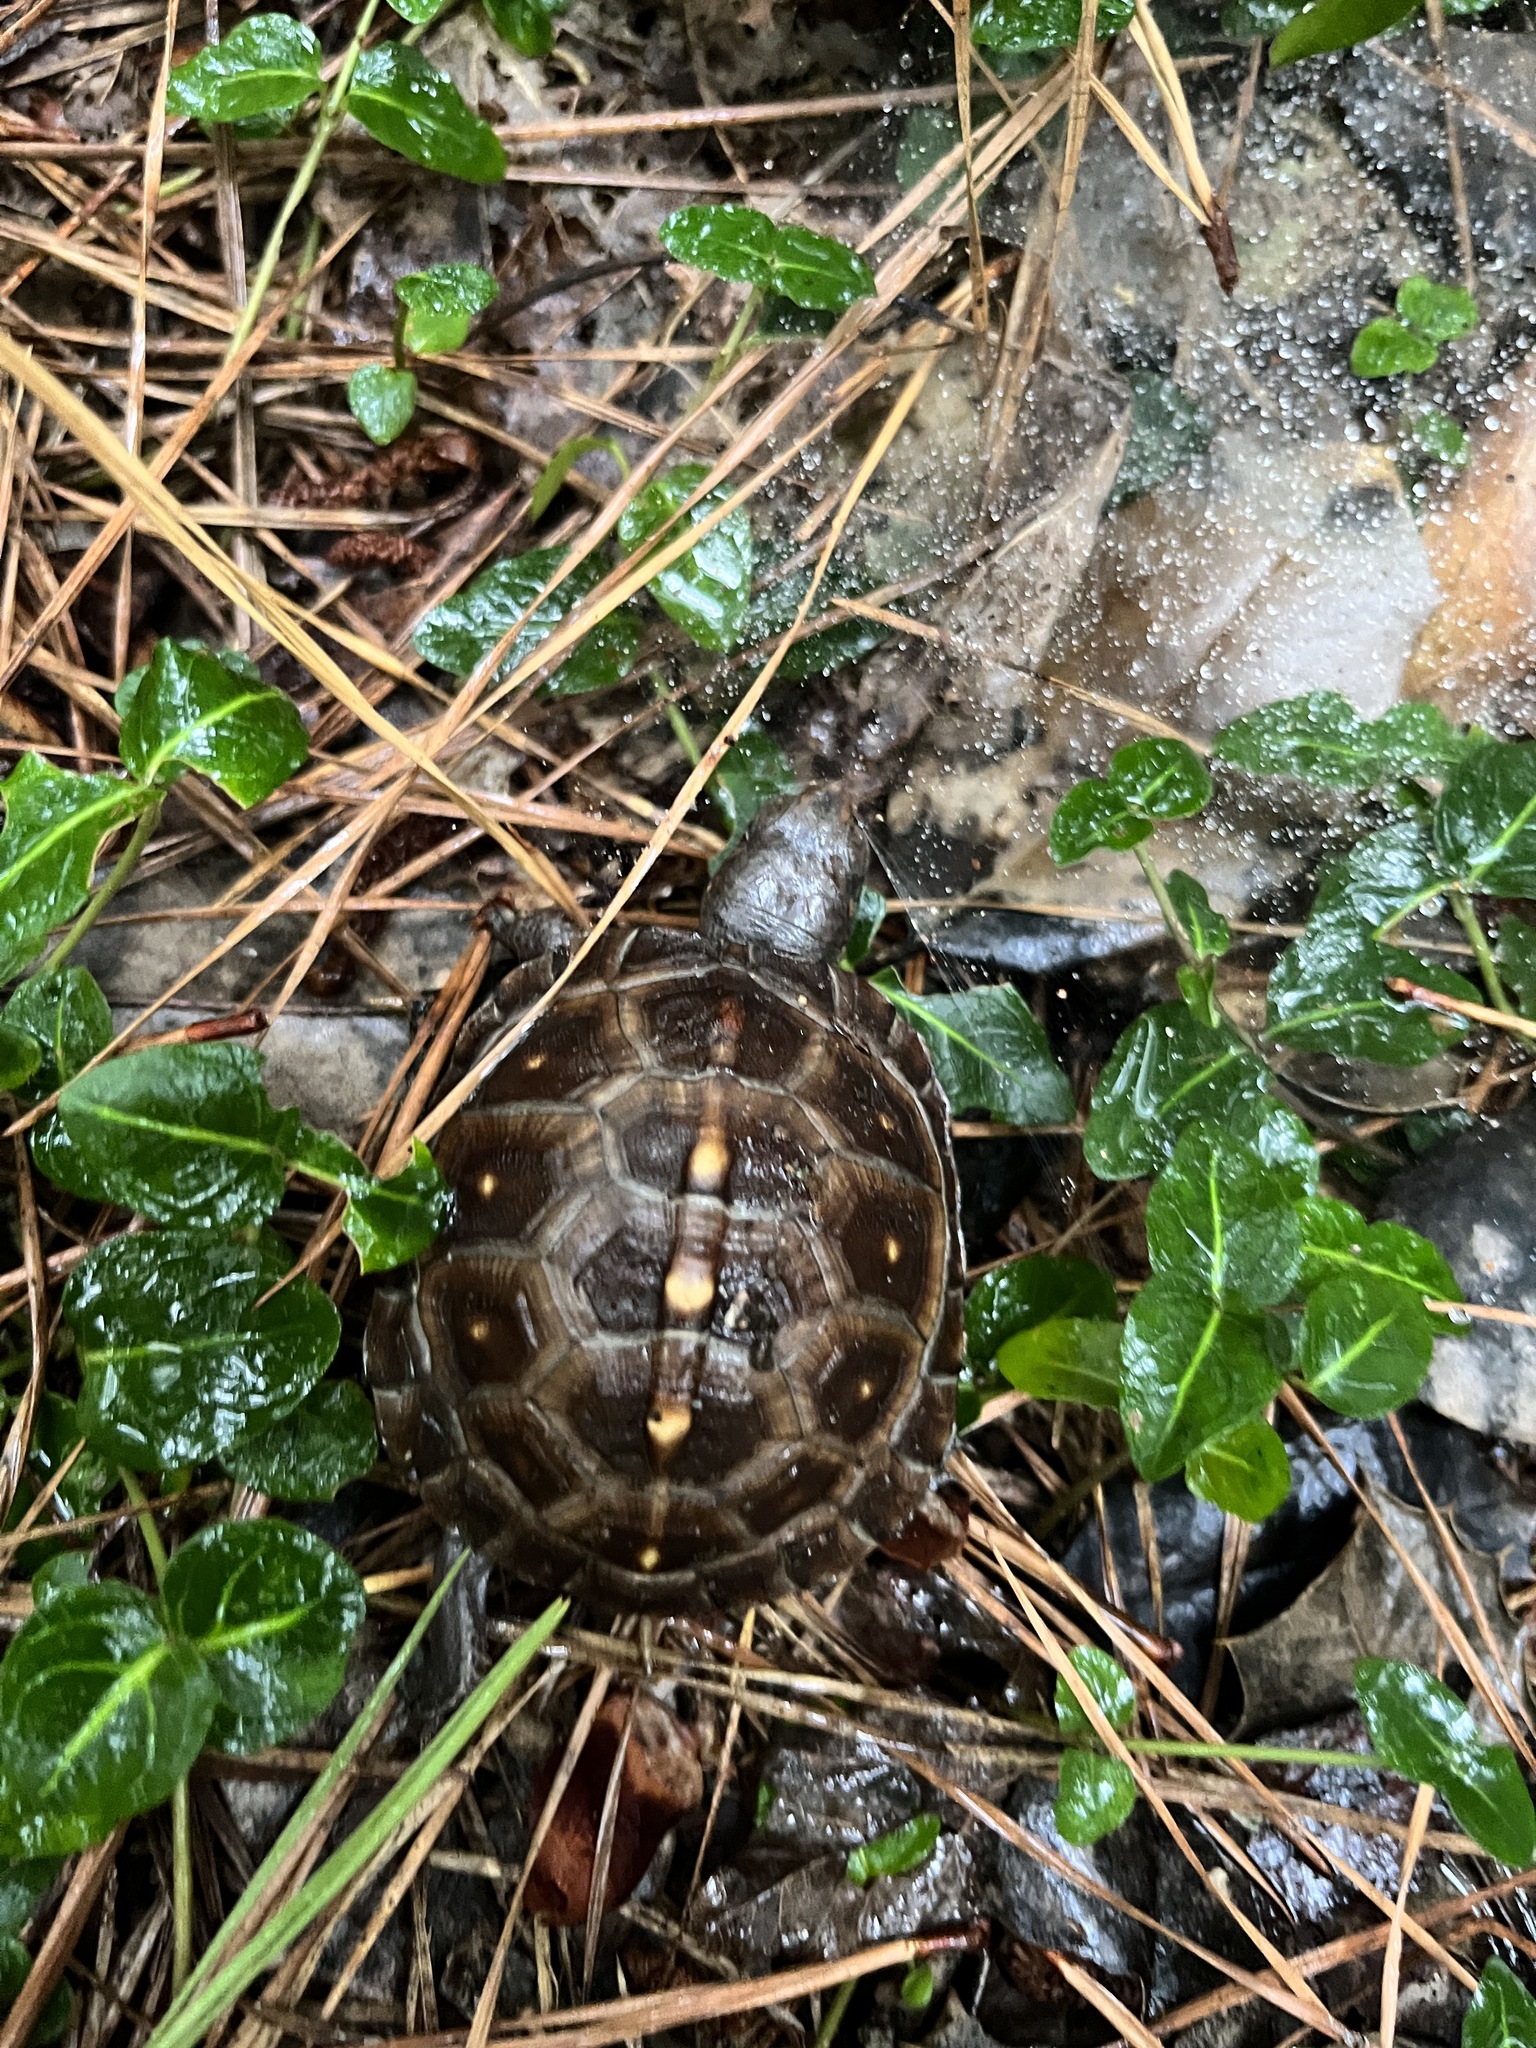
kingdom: Animalia
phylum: Chordata
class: Testudines
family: Emydidae
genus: Terrapene
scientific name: Terrapene carolina
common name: Common box turtle
